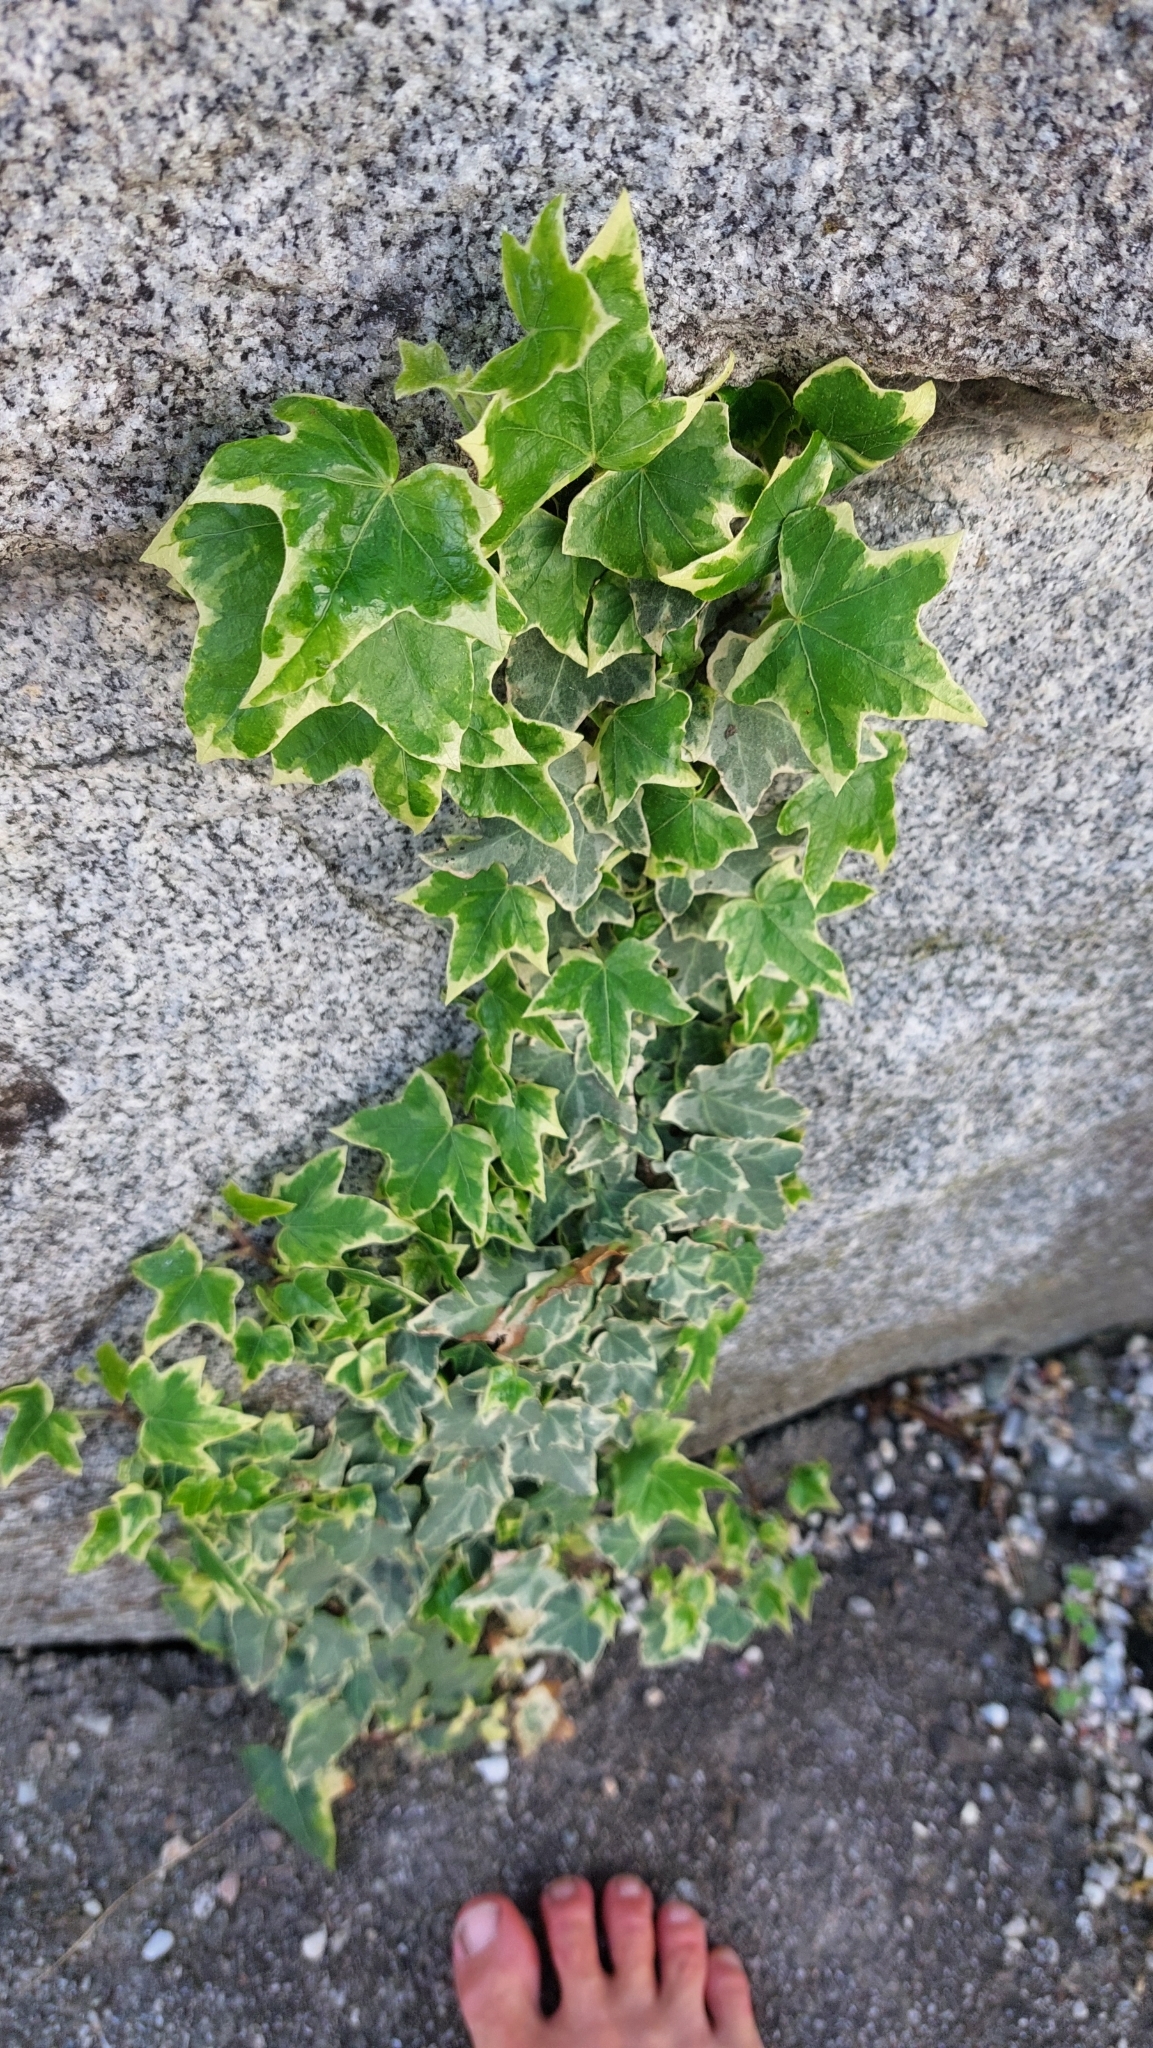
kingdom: Plantae
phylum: Tracheophyta
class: Magnoliopsida
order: Apiales
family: Araliaceae
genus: Hedera
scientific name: Hedera helix
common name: Ivy
